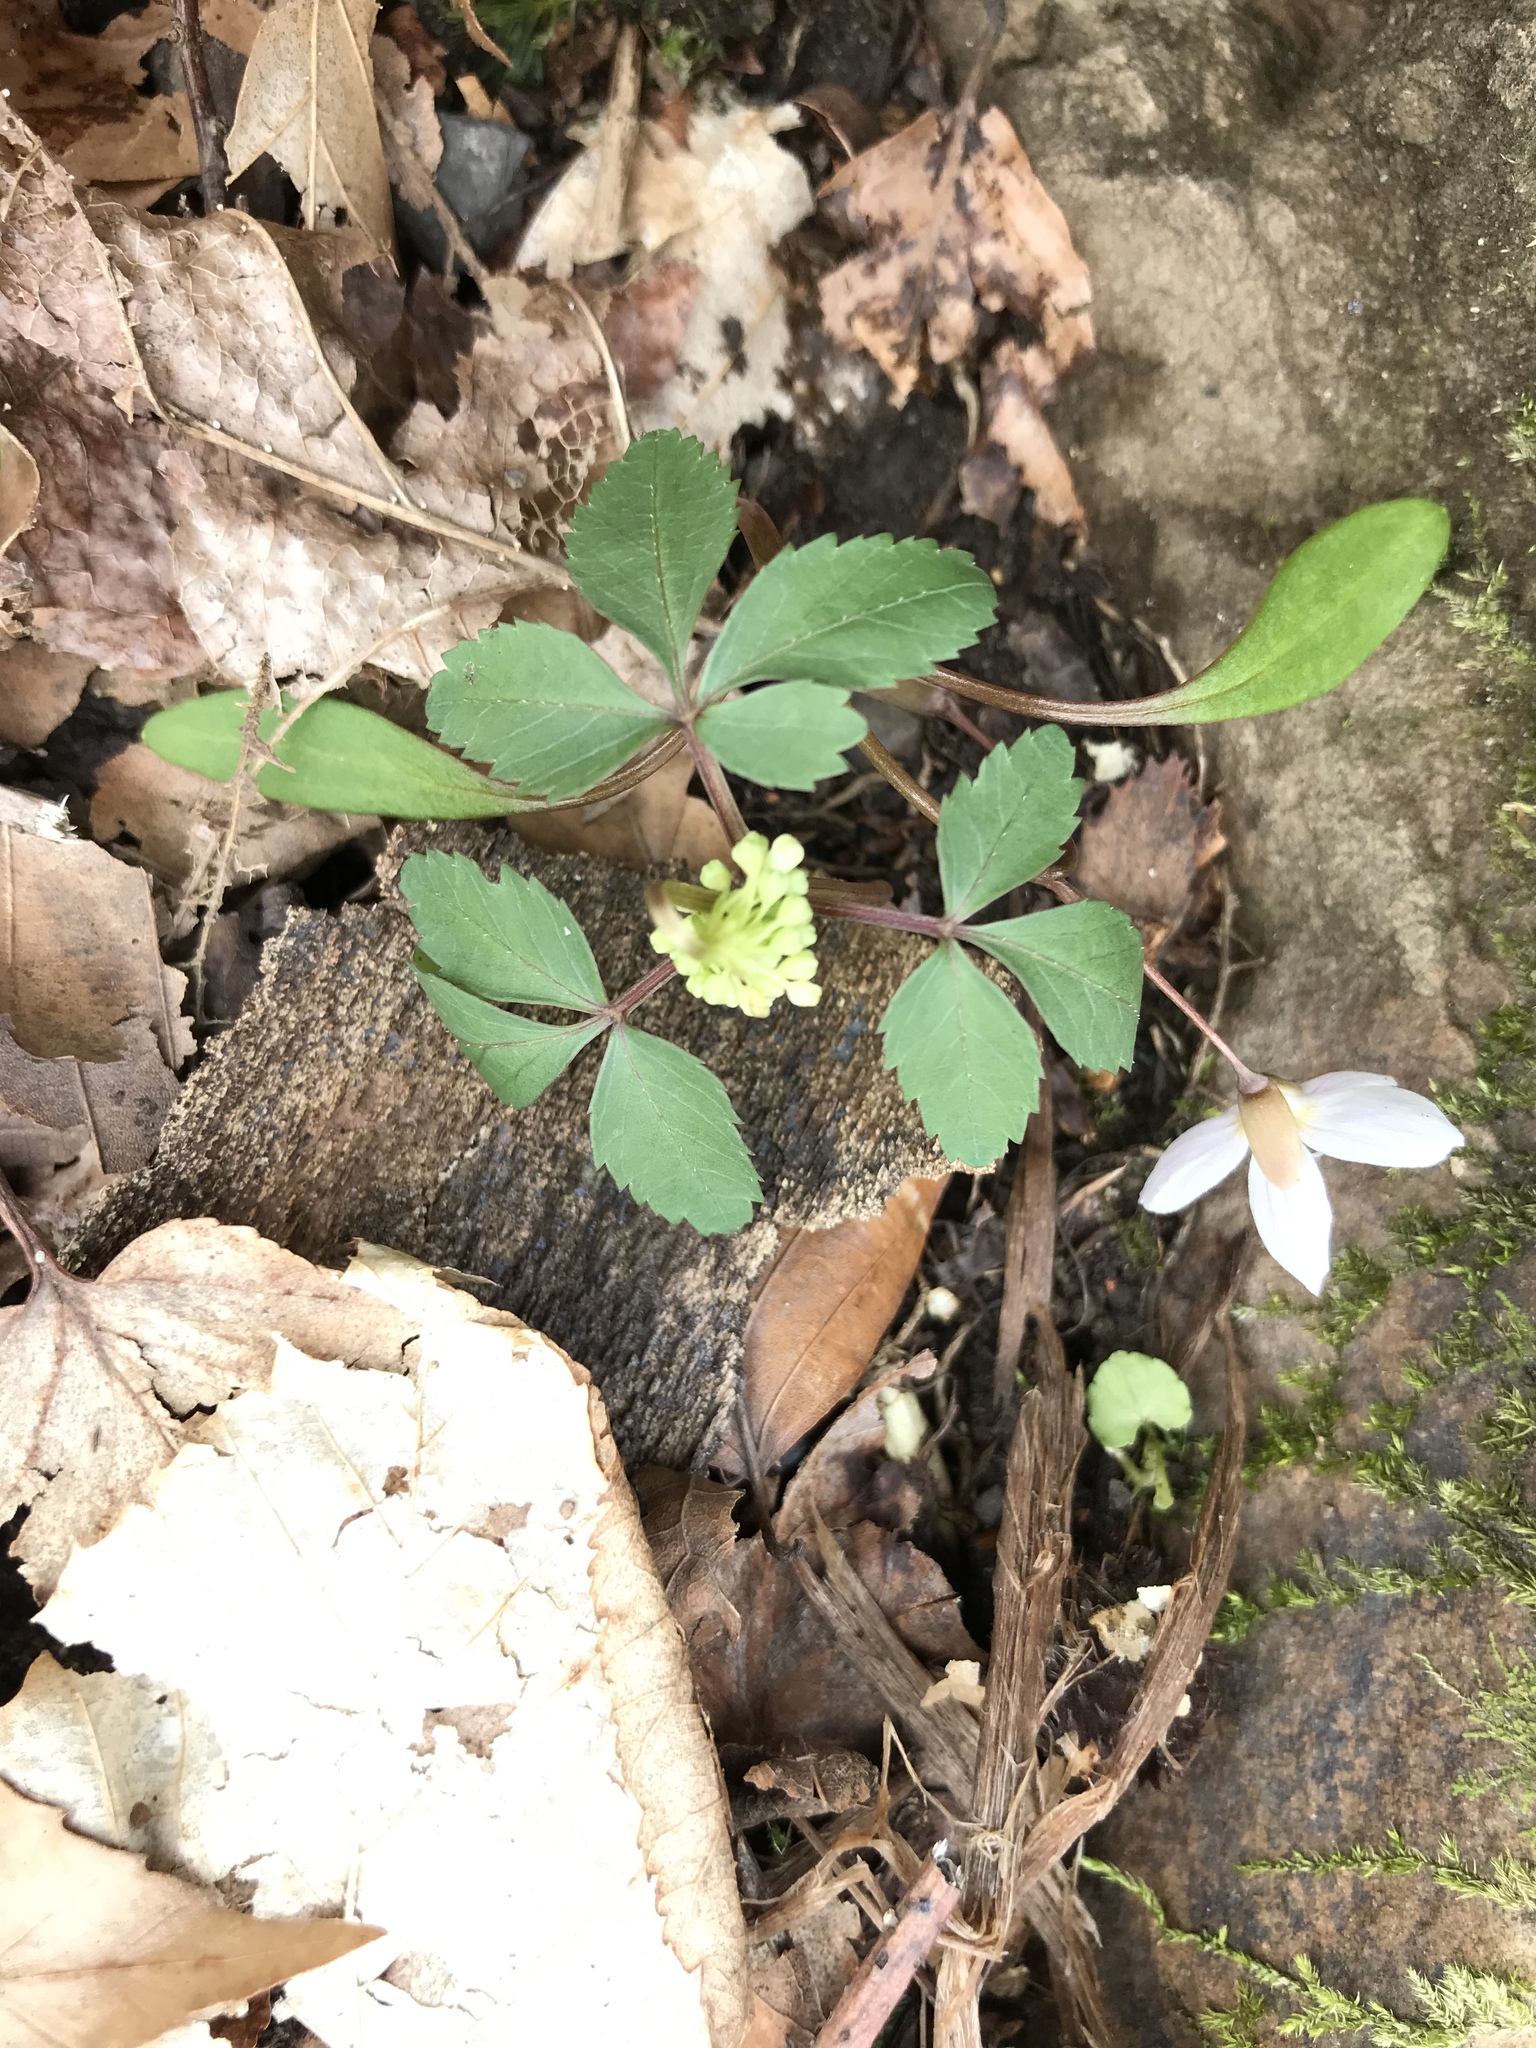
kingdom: Plantae
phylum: Tracheophyta
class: Magnoliopsida
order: Apiales
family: Araliaceae
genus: Panax
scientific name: Panax trifolius
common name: Dwarf ginseng
